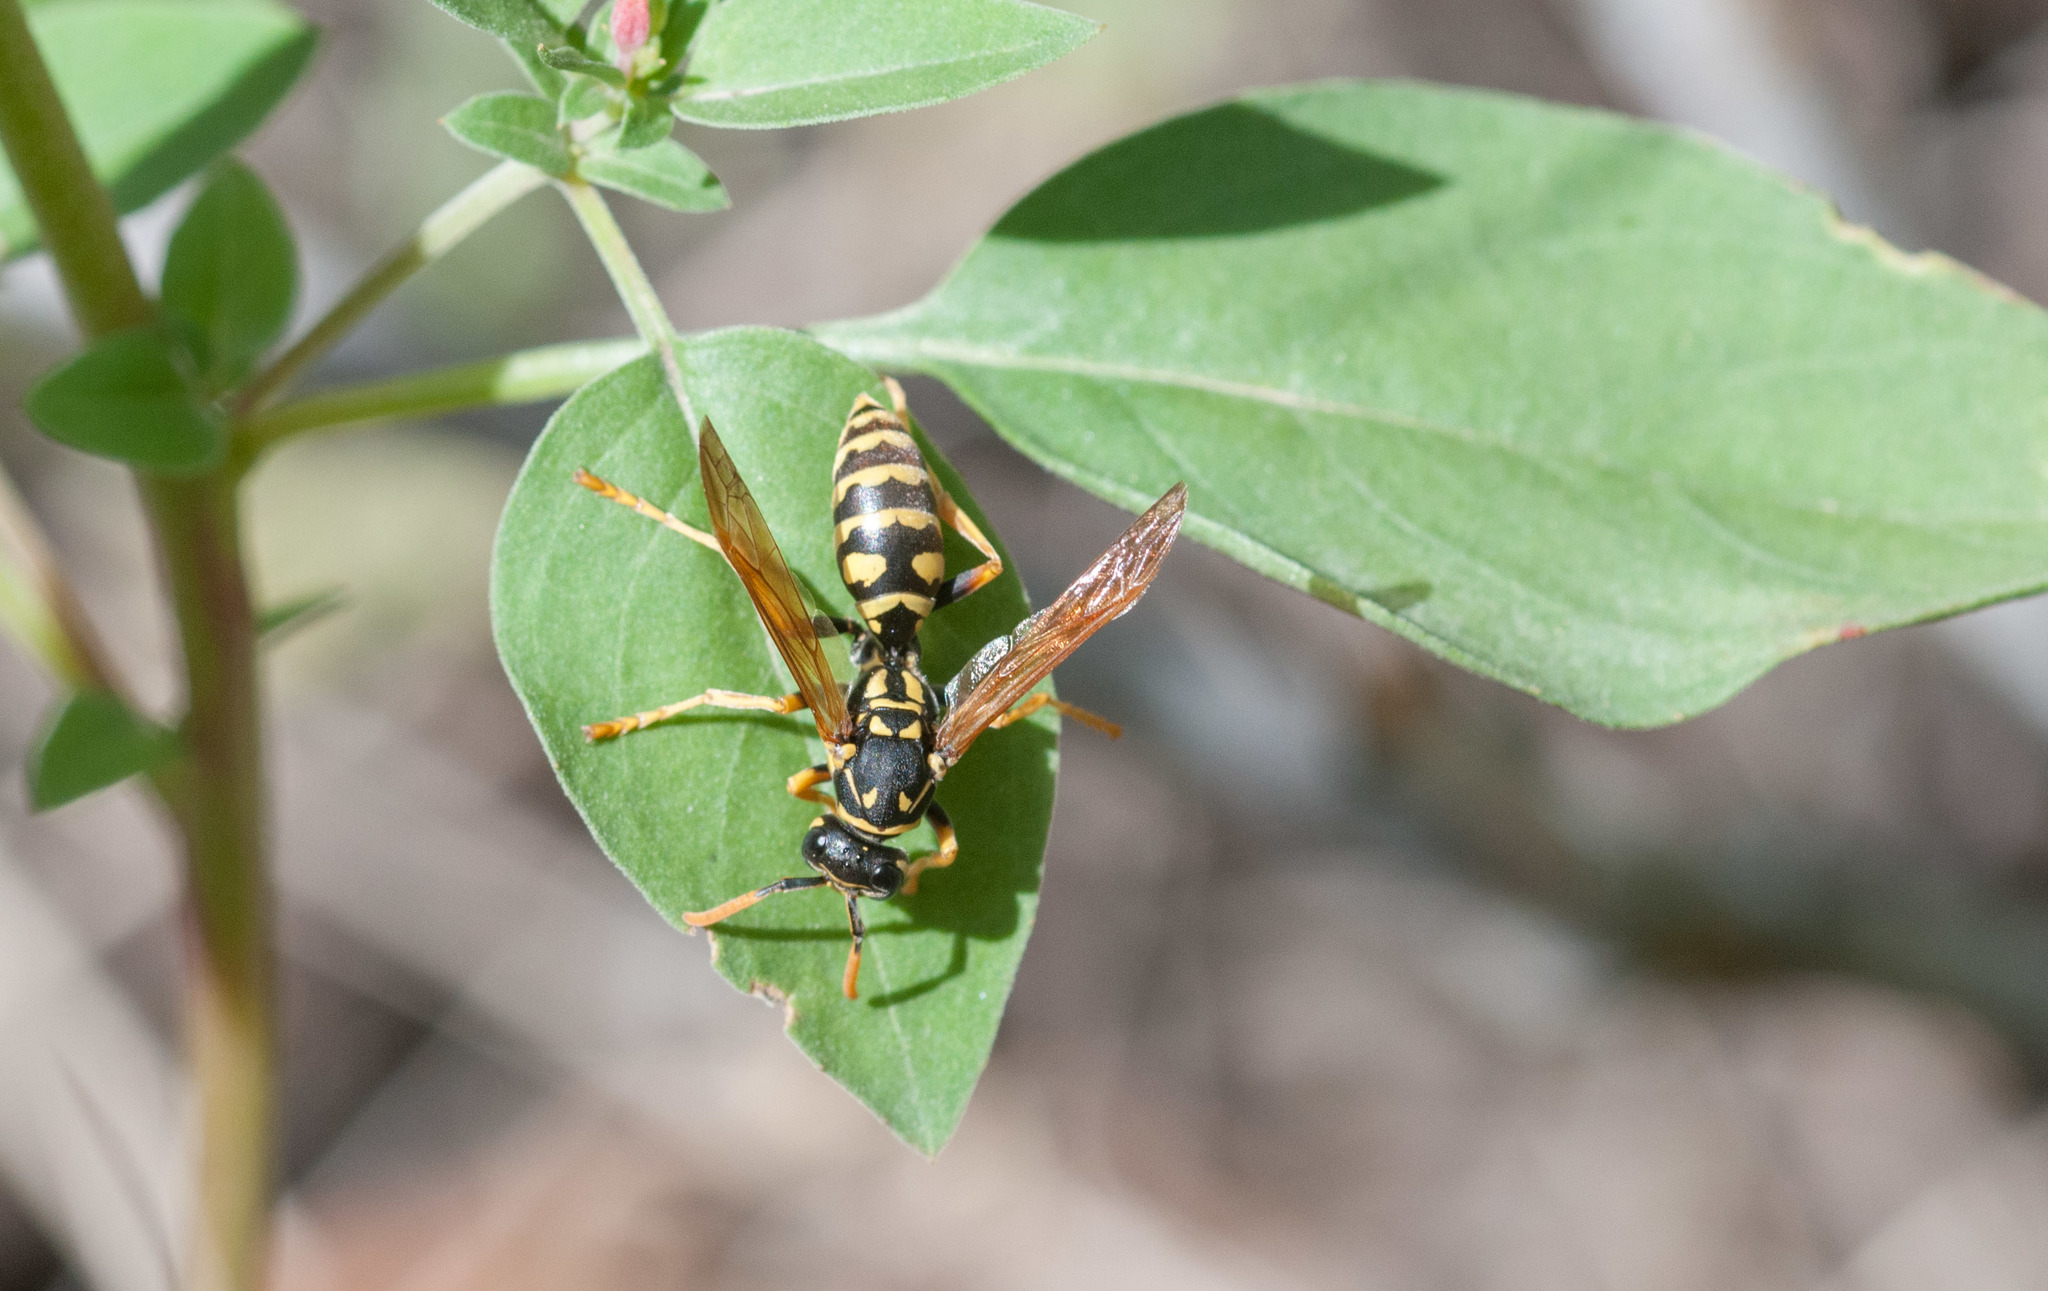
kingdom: Animalia
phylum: Arthropoda
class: Insecta
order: Hymenoptera
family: Eumenidae
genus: Polistes
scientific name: Polistes dominula
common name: Paper wasp
